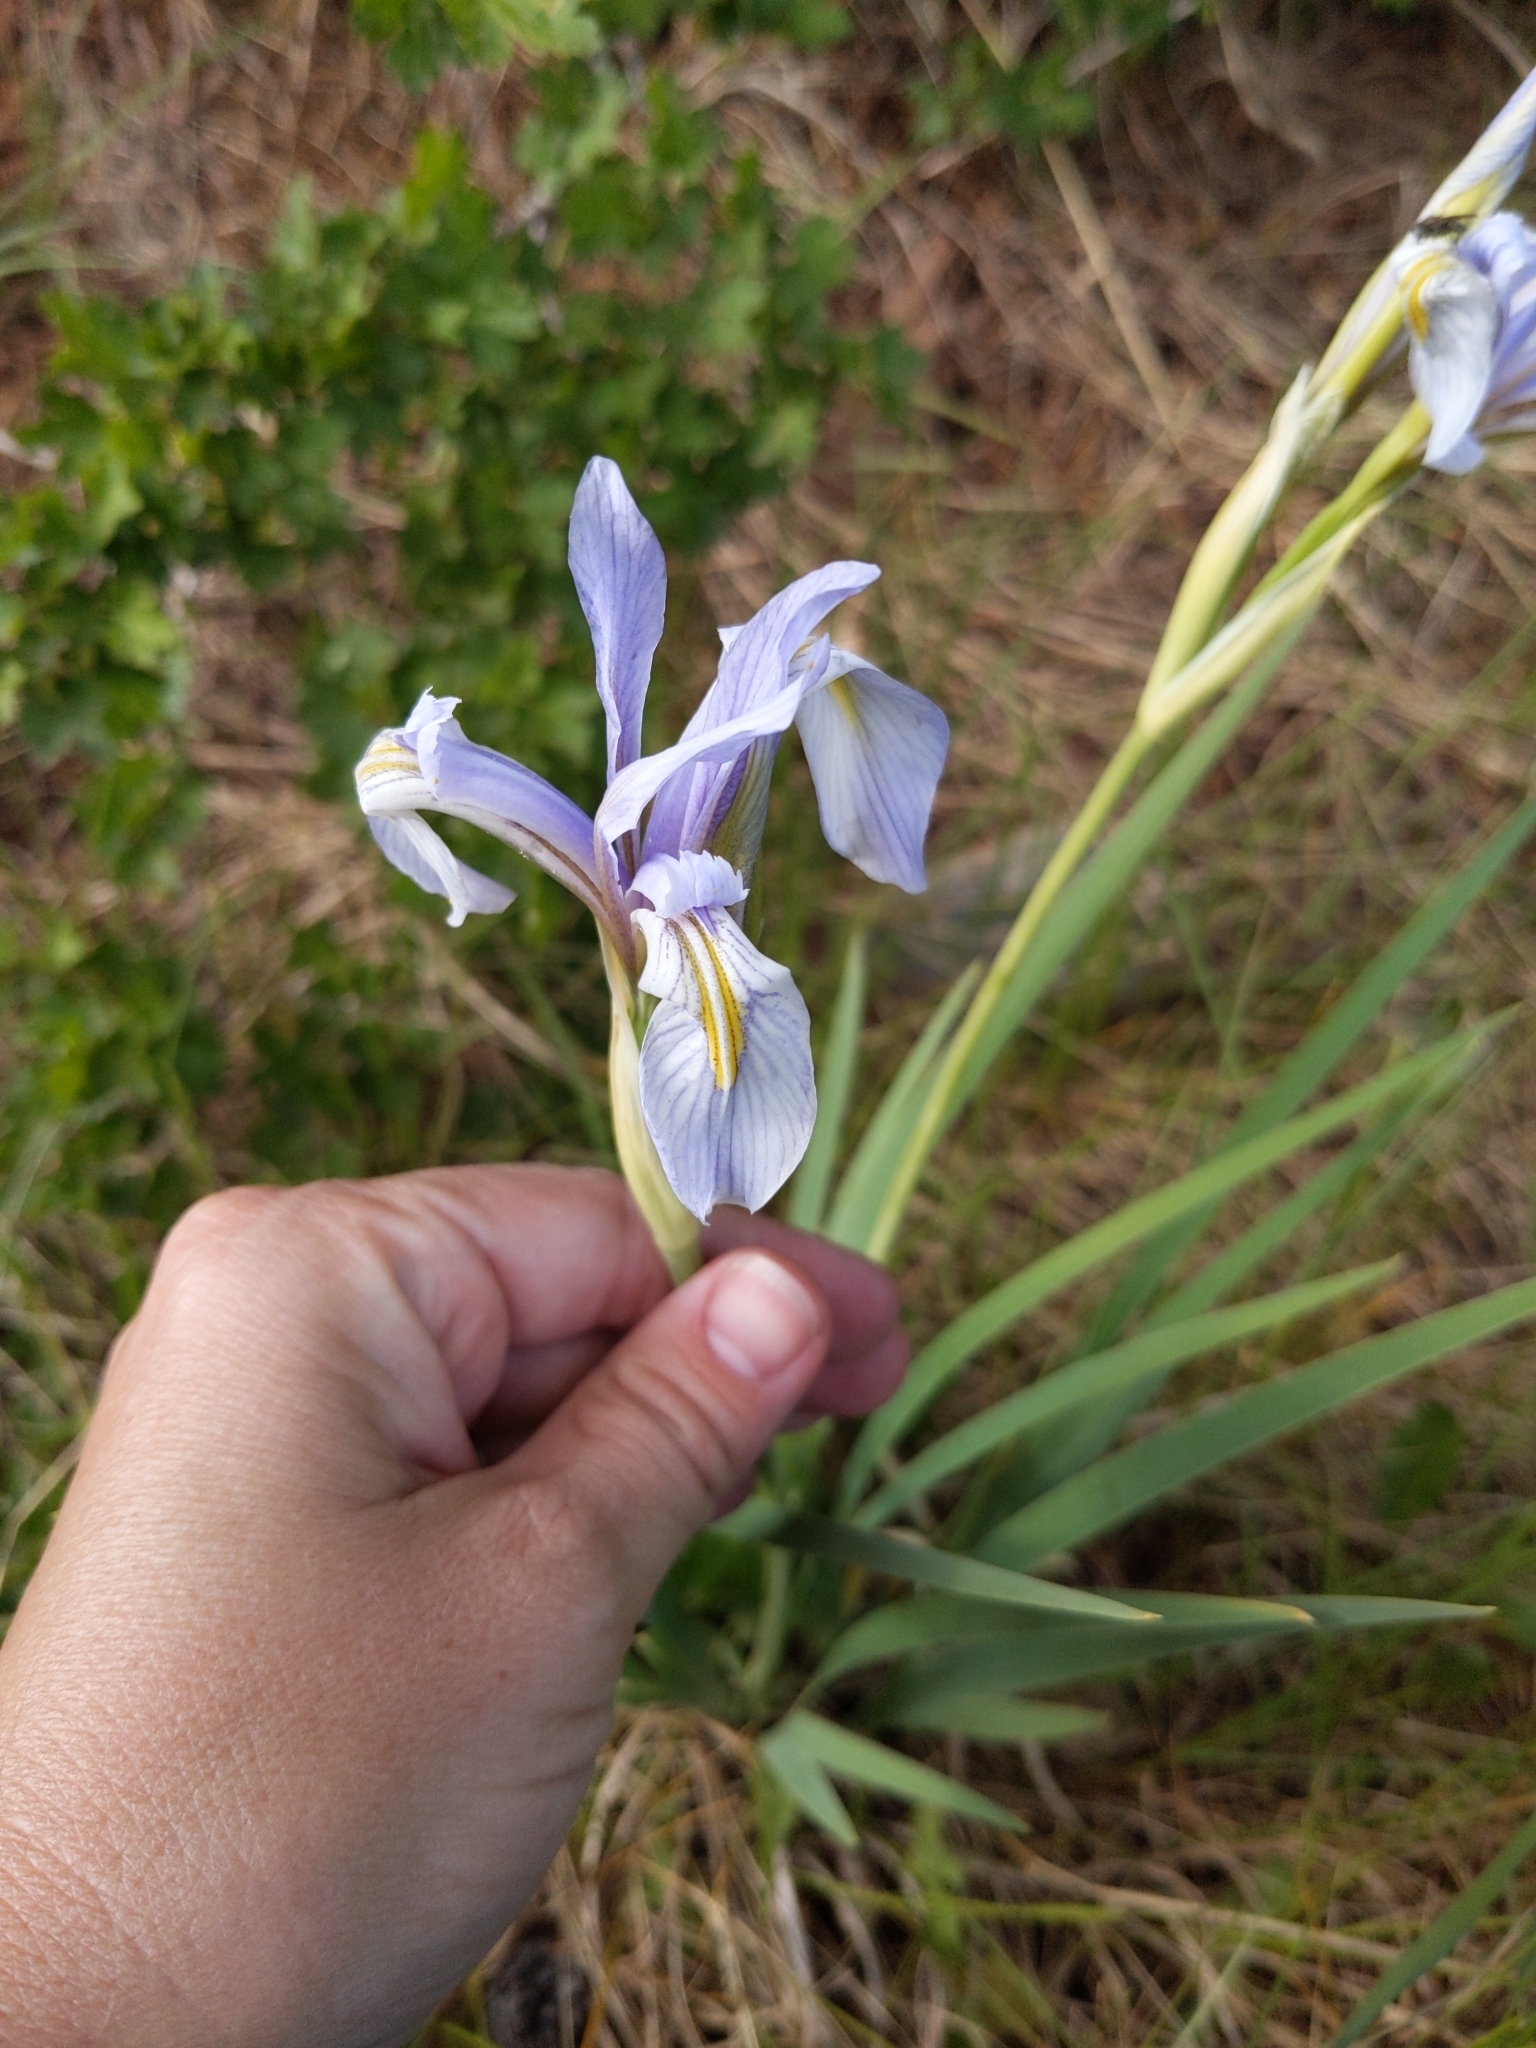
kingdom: Plantae
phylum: Tracheophyta
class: Liliopsida
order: Asparagales
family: Iridaceae
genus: Iris
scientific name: Iris missouriensis
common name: Rocky mountain iris
